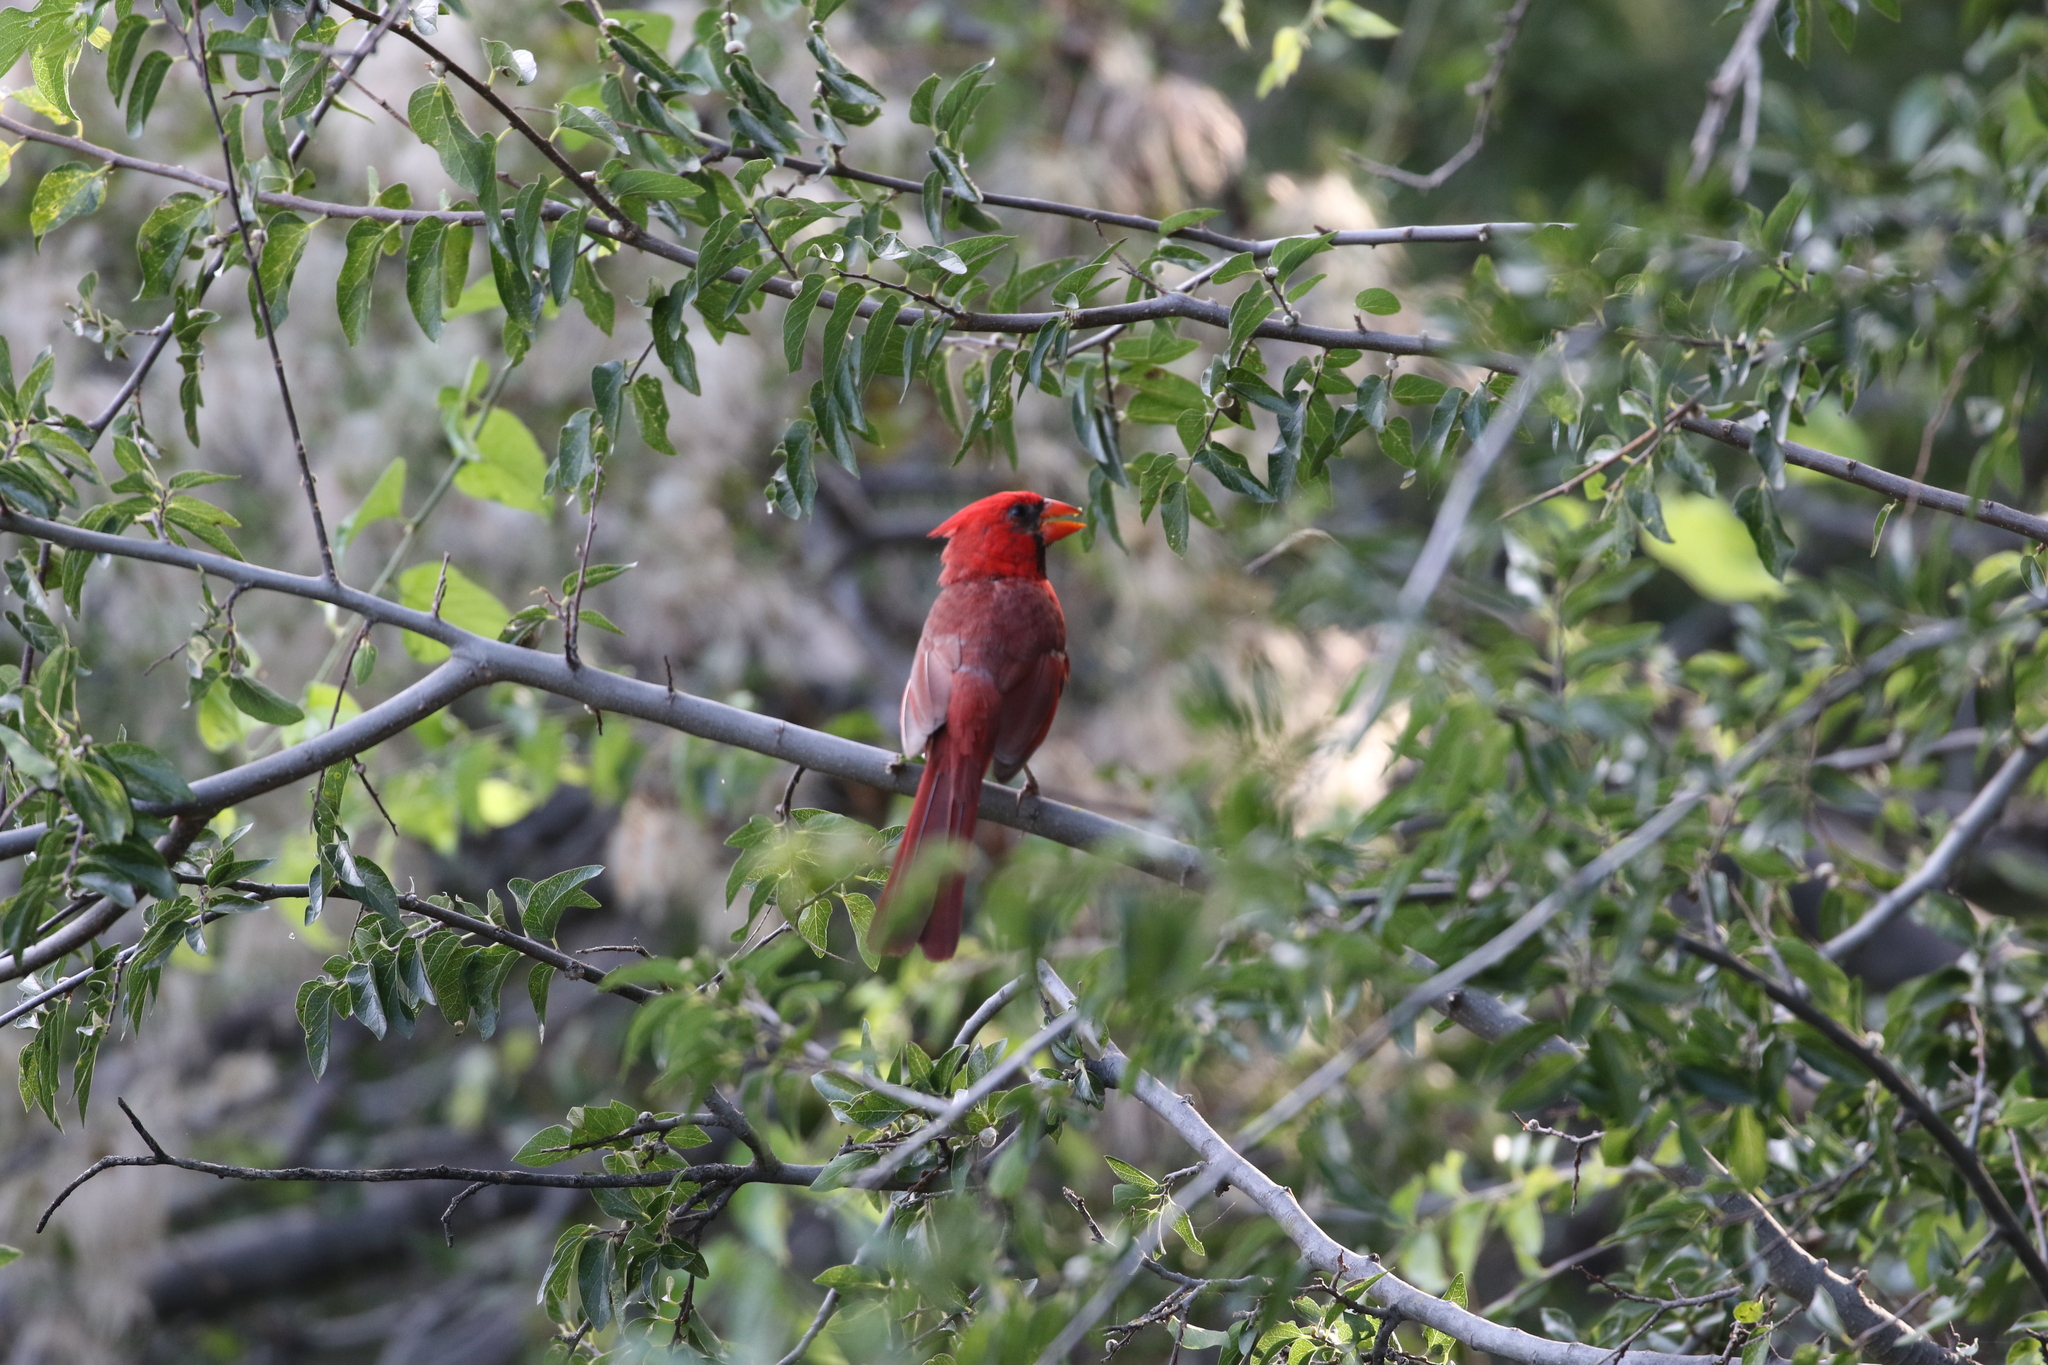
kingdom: Animalia
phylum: Chordata
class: Aves
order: Passeriformes
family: Cardinalidae
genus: Cardinalis
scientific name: Cardinalis cardinalis
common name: Northern cardinal
